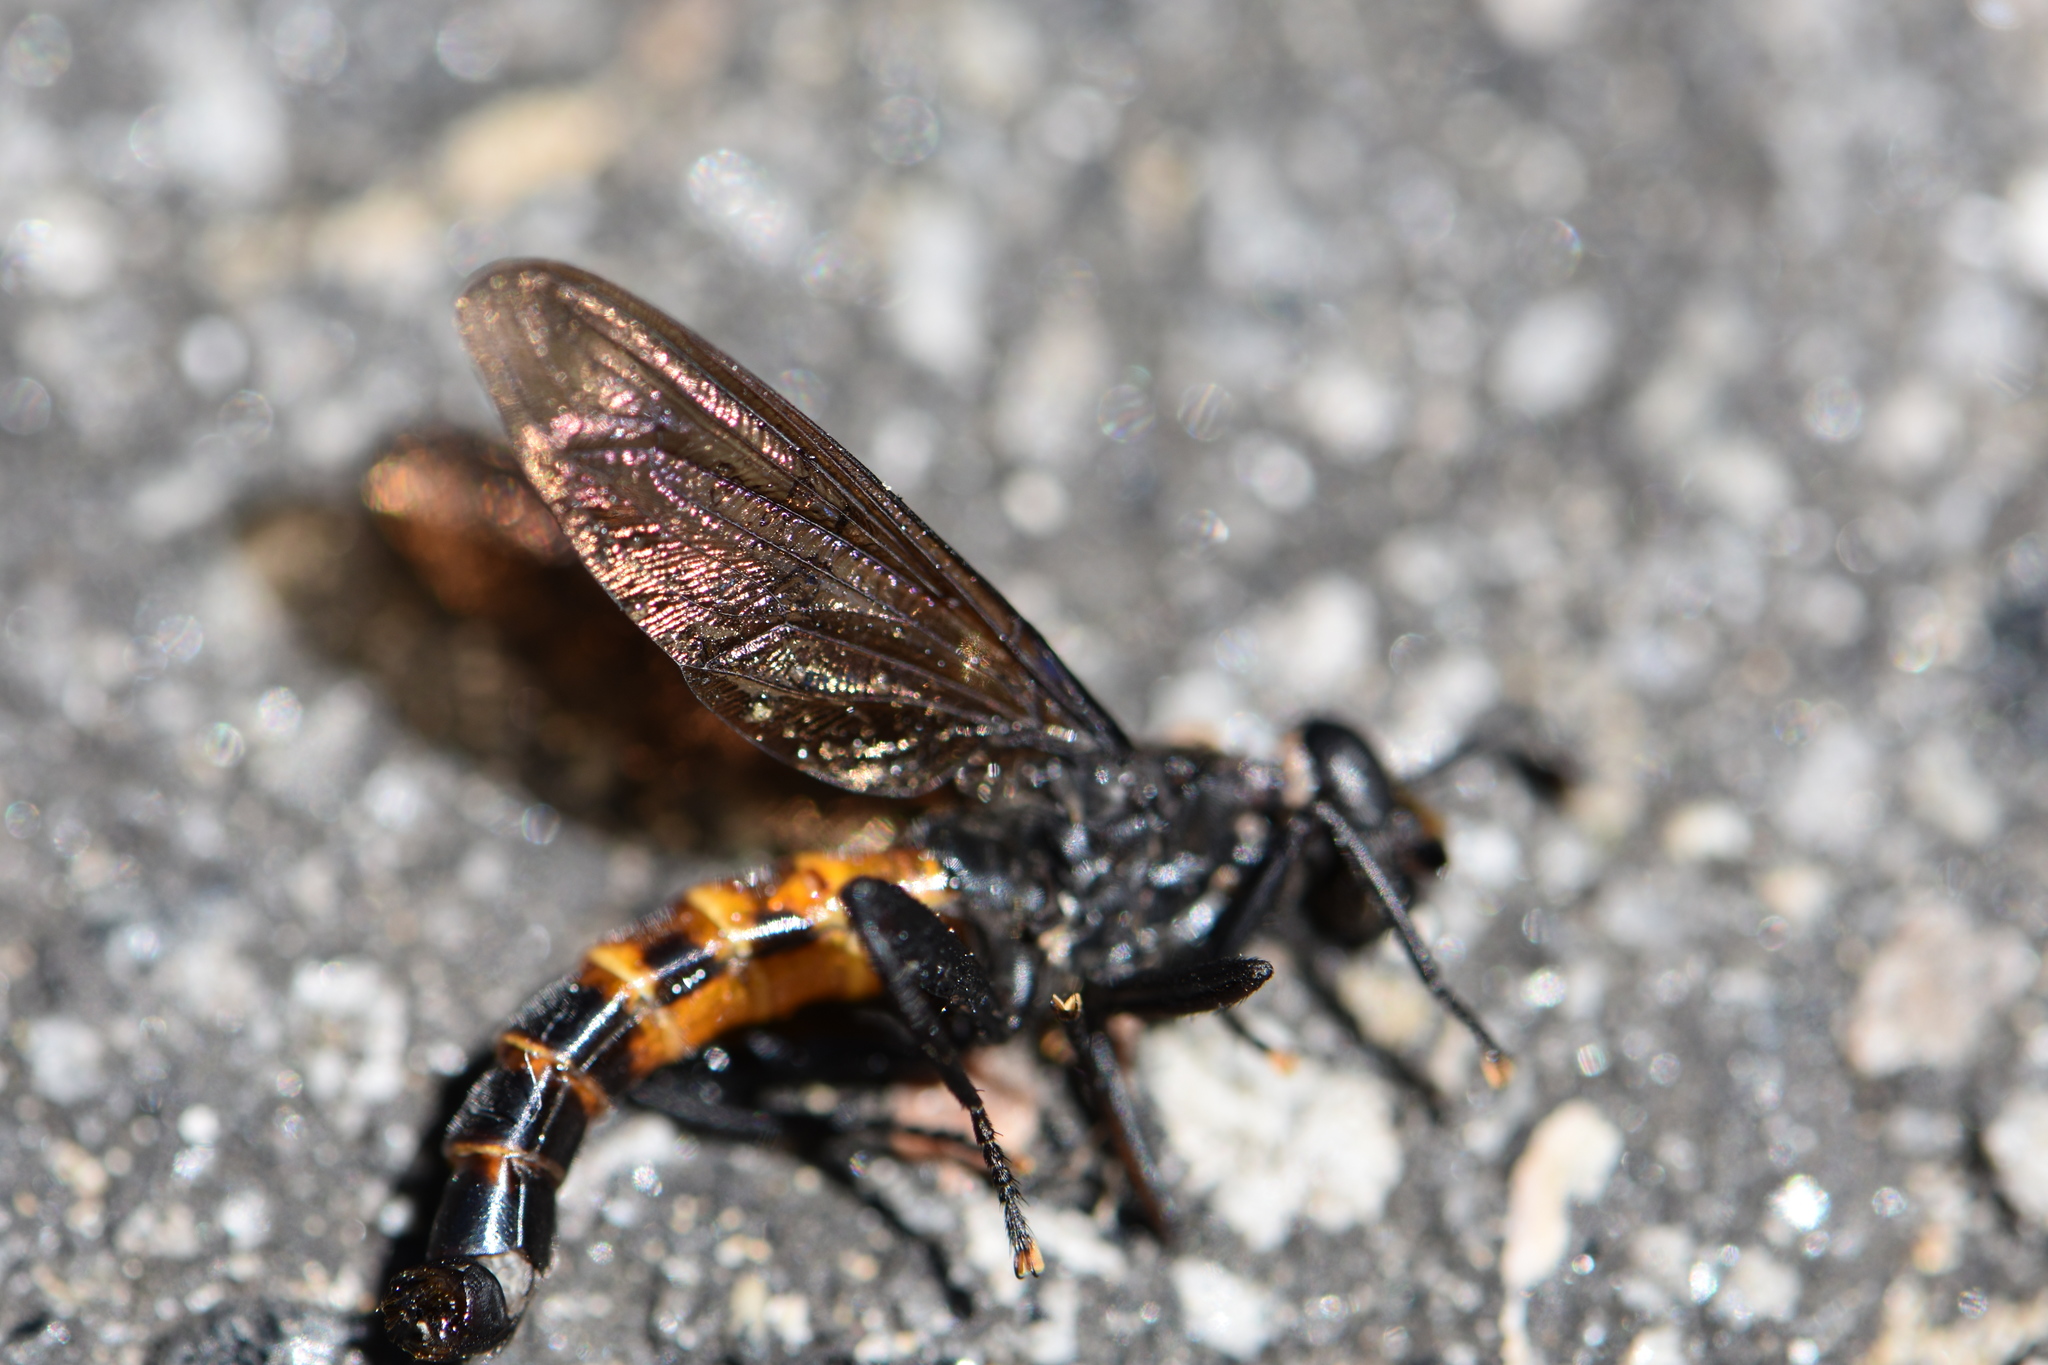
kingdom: Animalia
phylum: Arthropoda
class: Insecta
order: Diptera
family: Mydidae
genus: Mydas
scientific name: Mydas fulvifrons
